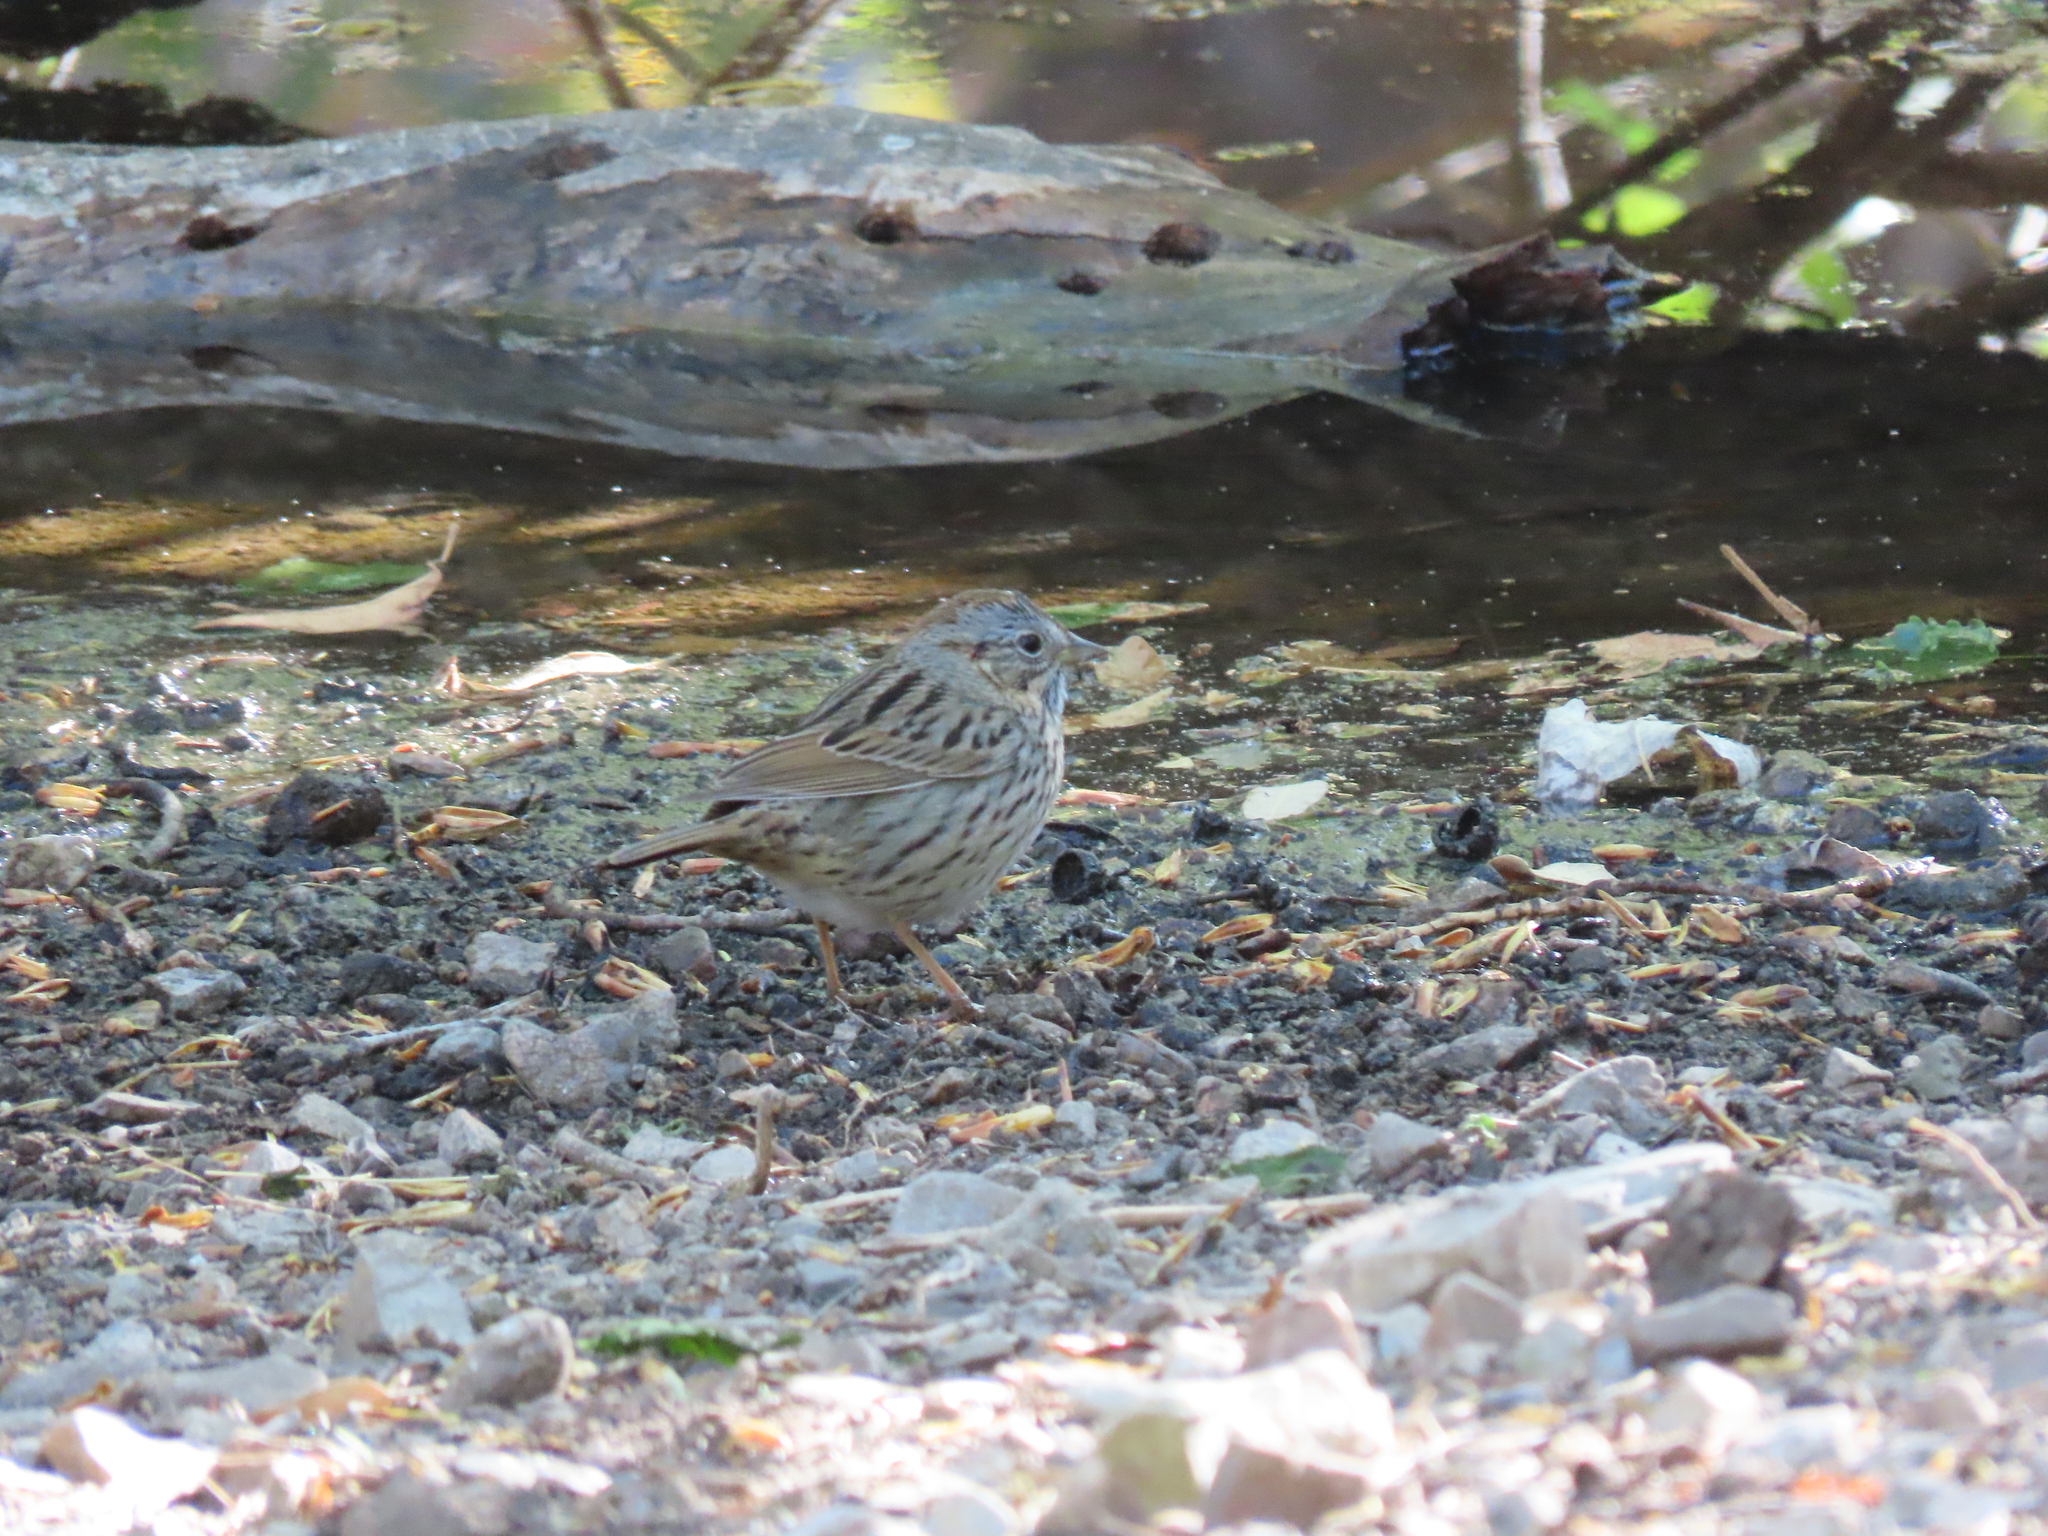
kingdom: Animalia
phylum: Chordata
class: Aves
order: Passeriformes
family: Passerellidae
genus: Melospiza
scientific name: Melospiza lincolnii
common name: Lincoln's sparrow
